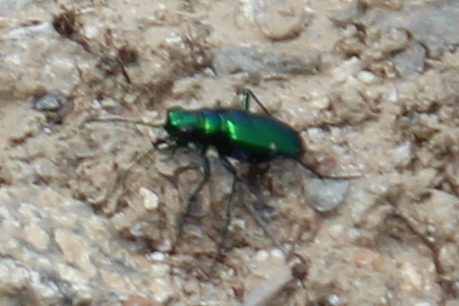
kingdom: Animalia
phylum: Arthropoda
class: Insecta
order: Coleoptera
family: Carabidae
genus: Cicindela
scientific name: Cicindela sexguttata
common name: Six-spotted tiger beetle
